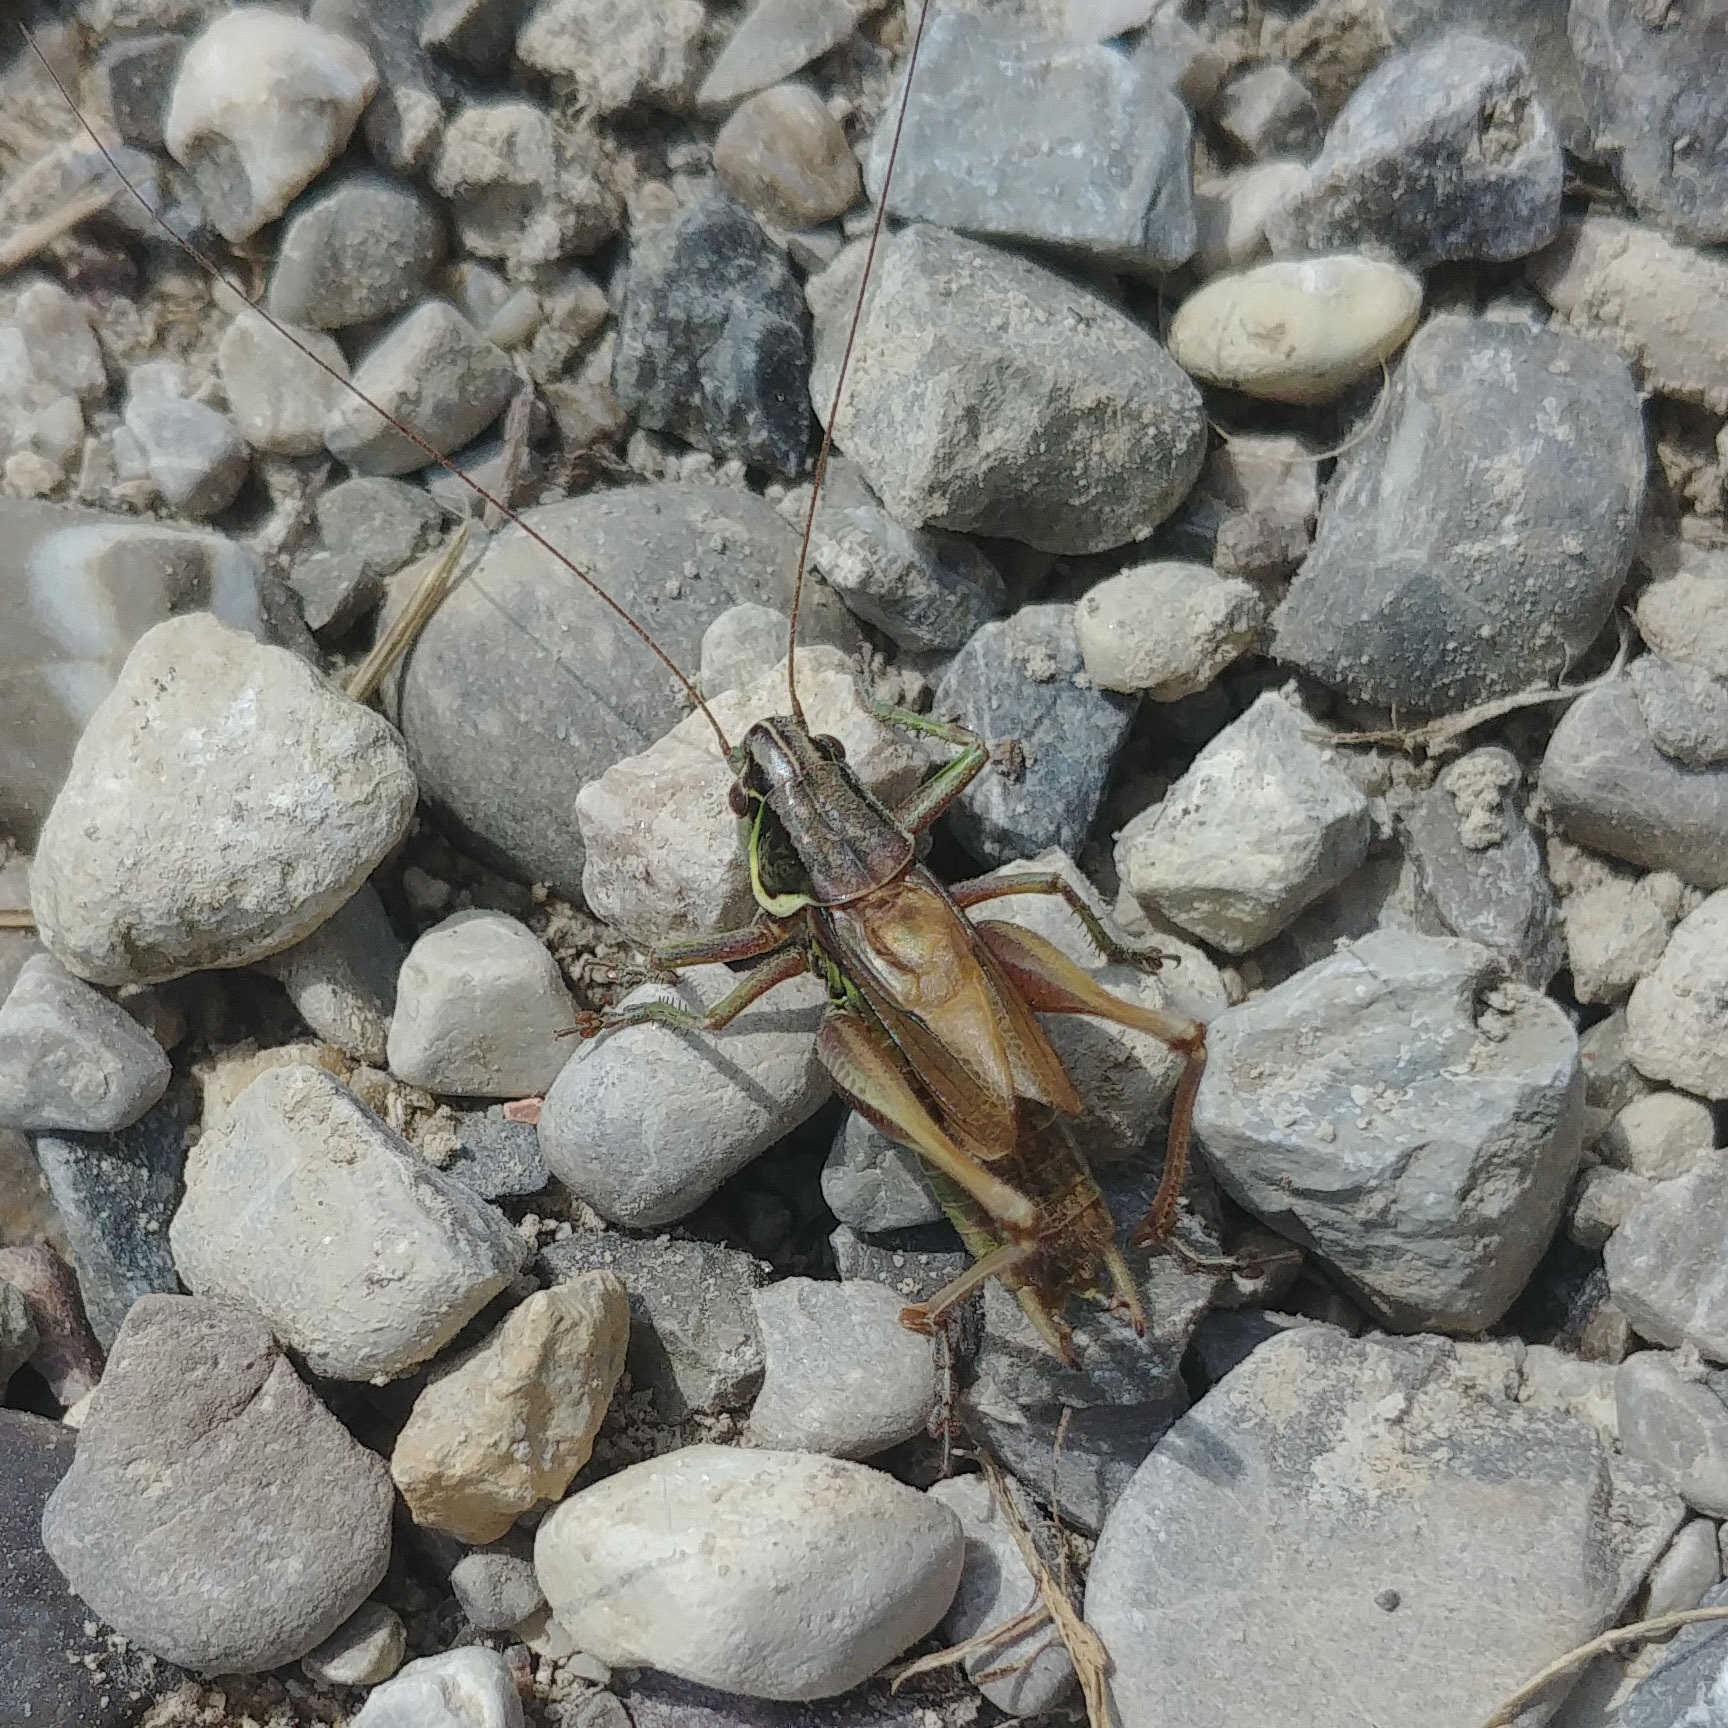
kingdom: Animalia
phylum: Arthropoda
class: Insecta
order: Orthoptera
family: Tettigoniidae
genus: Roeseliana
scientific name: Roeseliana roeselii
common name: Roesel's bush cricket
